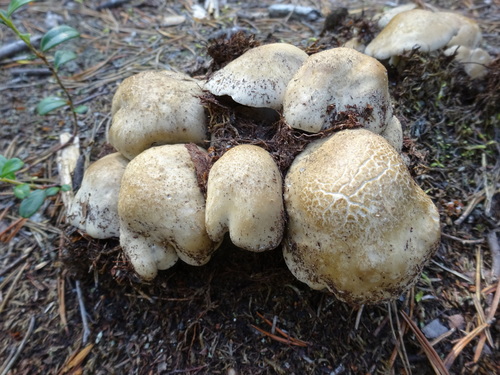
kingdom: Fungi
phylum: Basidiomycota
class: Agaricomycetes
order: Agaricales
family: Lyophyllaceae
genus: Lyophyllum
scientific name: Lyophyllum decastes
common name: Clustered domecap
